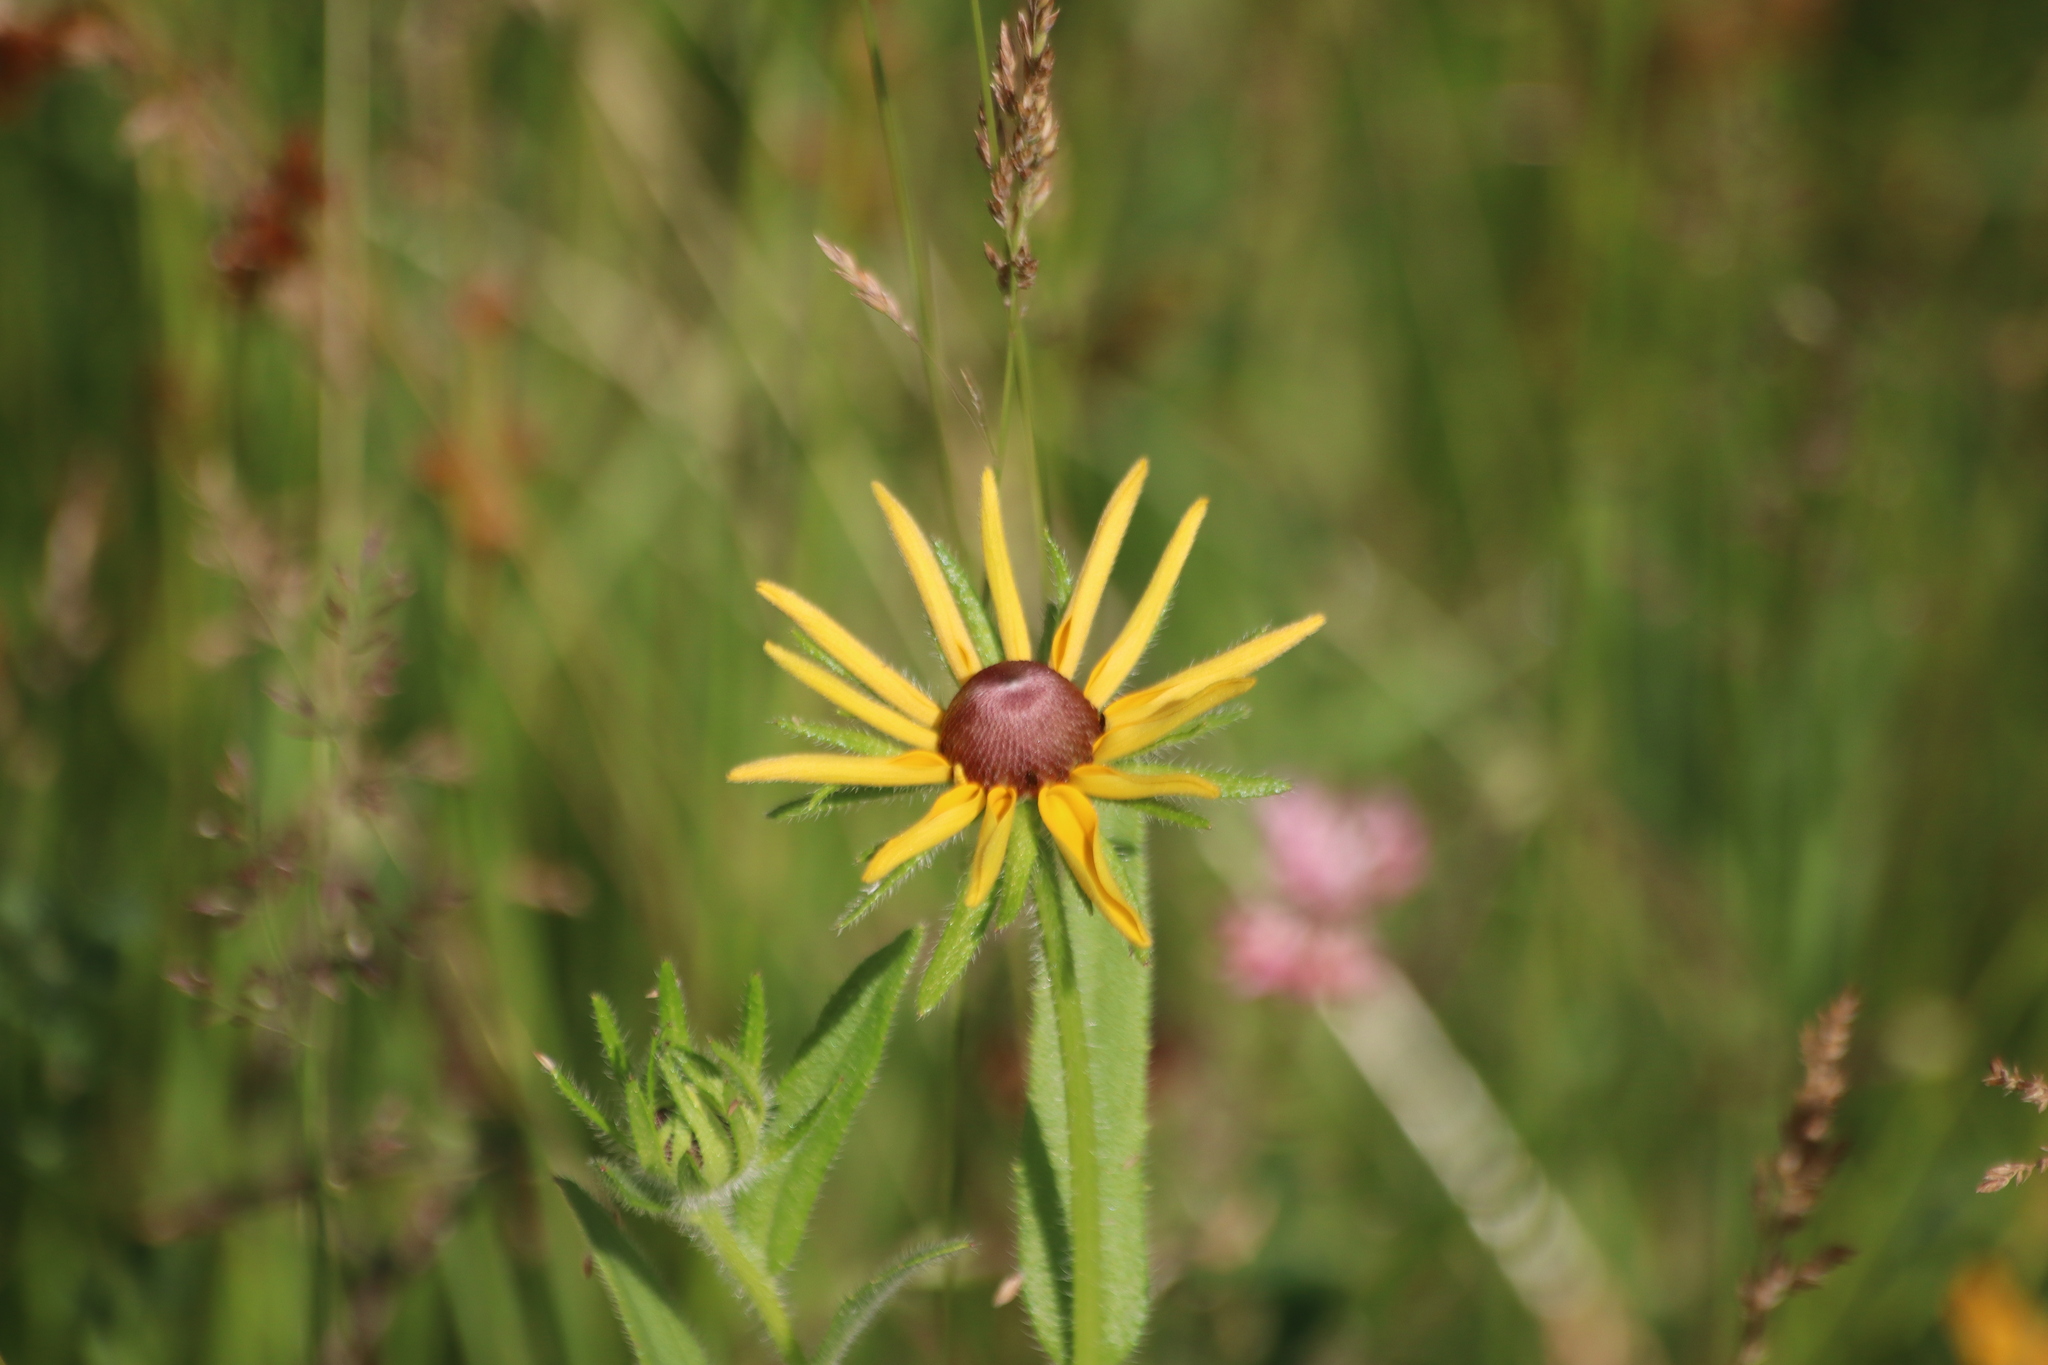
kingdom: Plantae
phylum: Tracheophyta
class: Magnoliopsida
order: Asterales
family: Asteraceae
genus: Rudbeckia
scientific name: Rudbeckia hirta
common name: Black-eyed-susan
